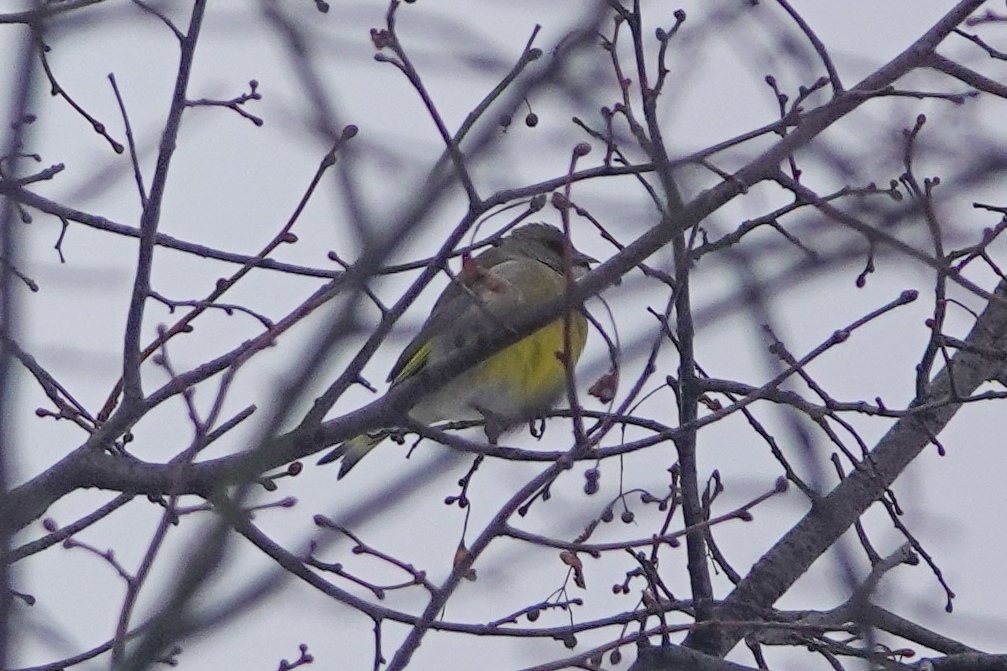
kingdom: Plantae
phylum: Tracheophyta
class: Liliopsida
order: Poales
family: Poaceae
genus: Chloris
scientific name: Chloris chloris
